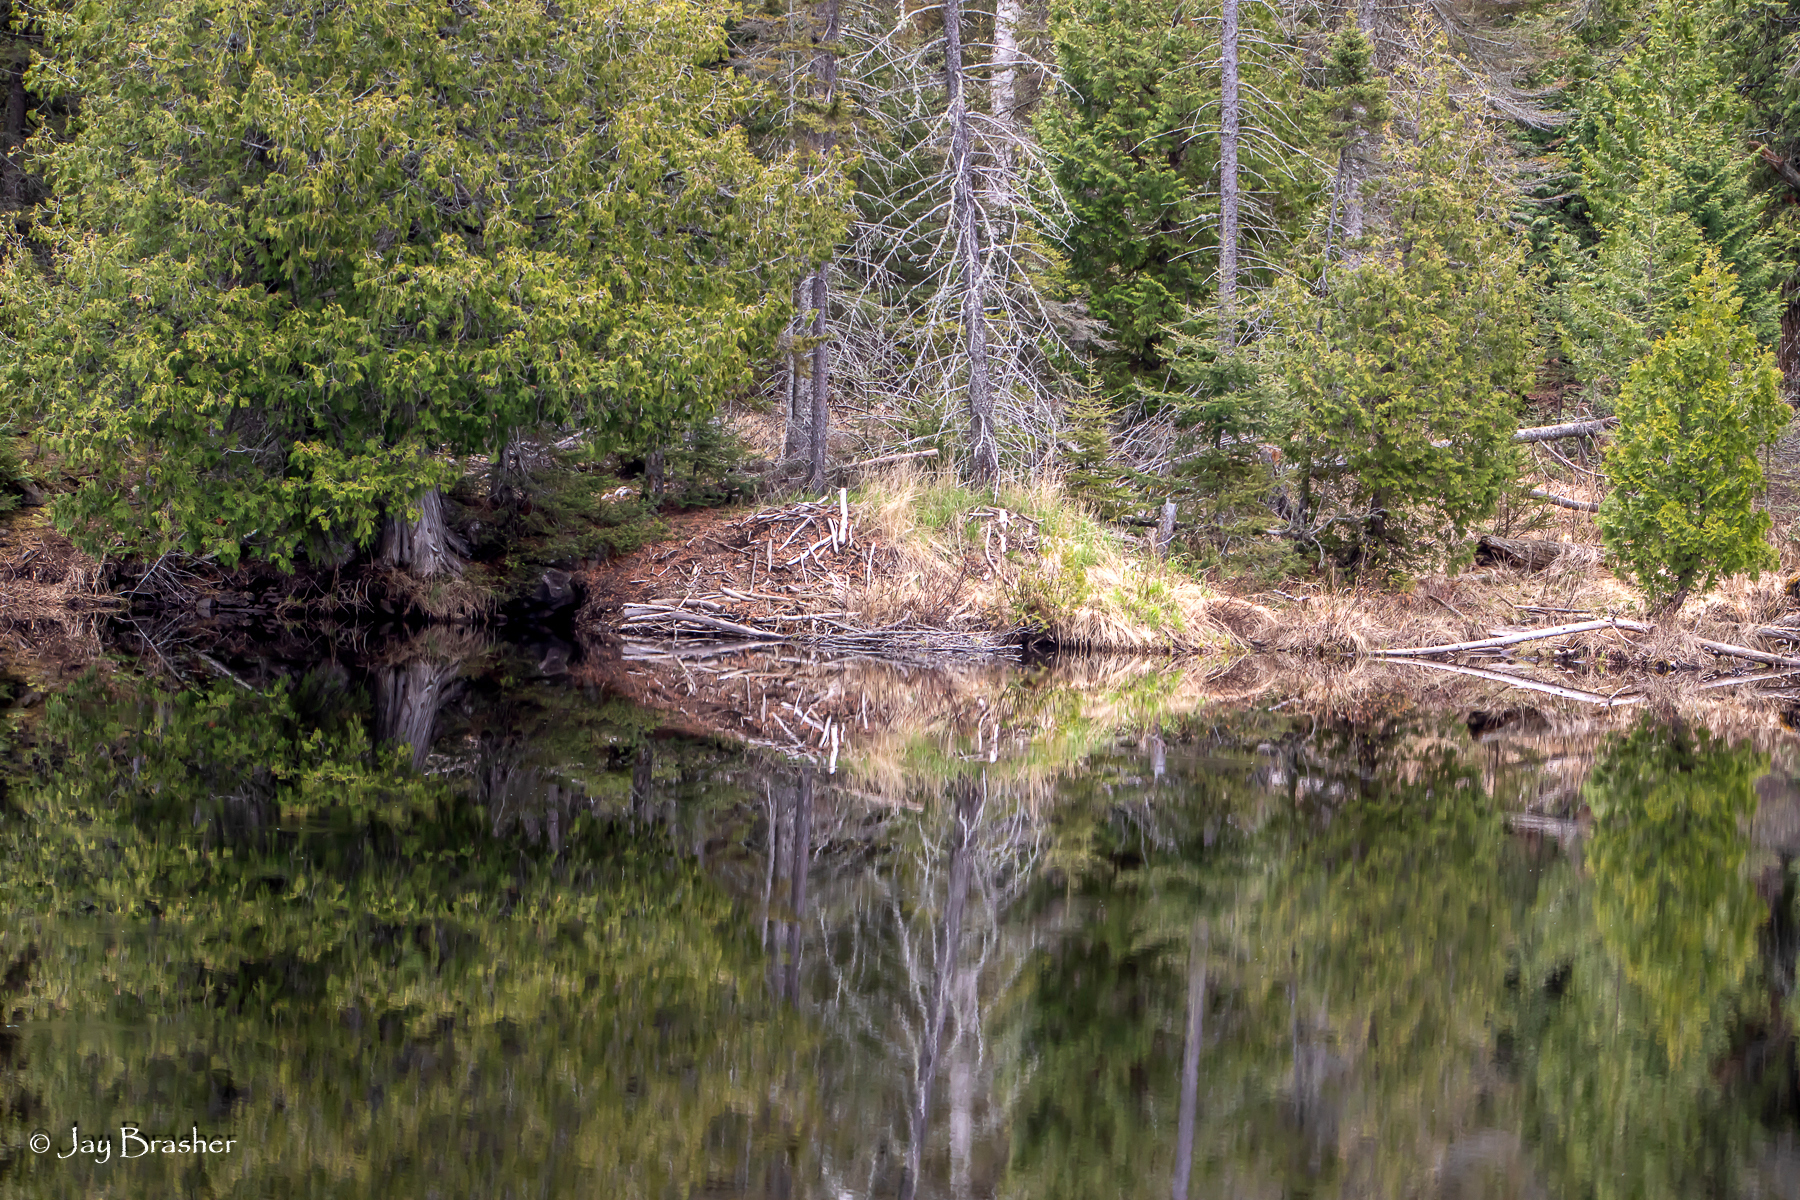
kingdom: Animalia
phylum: Chordata
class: Mammalia
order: Rodentia
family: Castoridae
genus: Castor
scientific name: Castor canadensis
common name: American beaver
